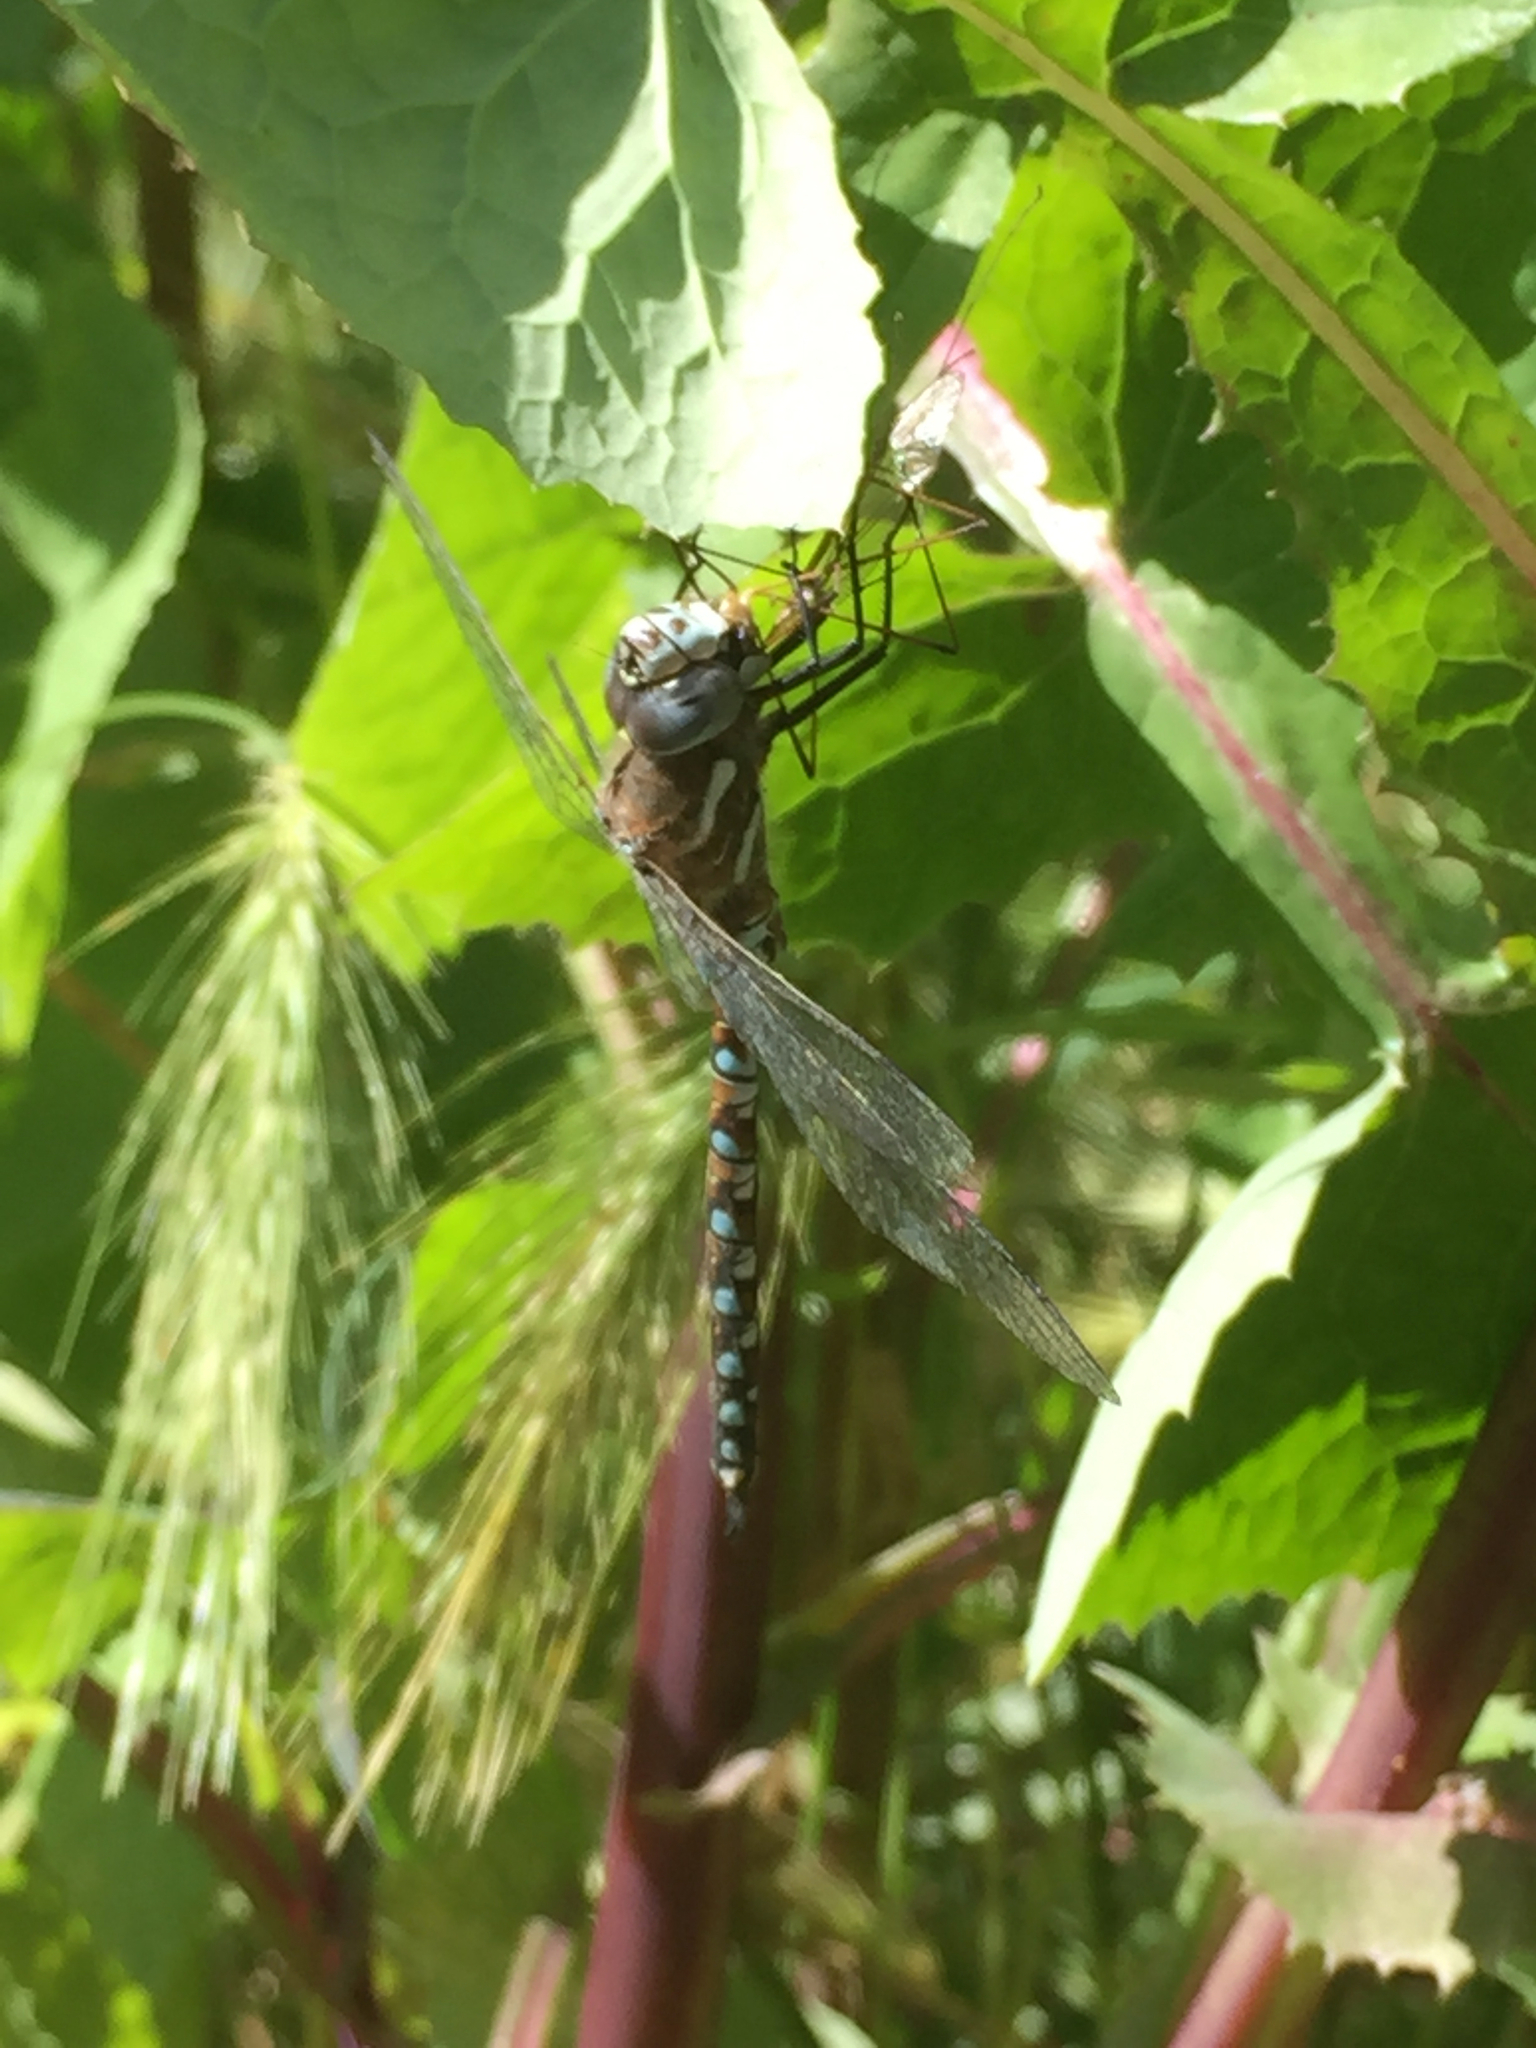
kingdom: Animalia
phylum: Arthropoda
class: Insecta
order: Odonata
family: Aeshnidae
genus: Rhionaeschna
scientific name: Rhionaeschna californica
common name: California darner
